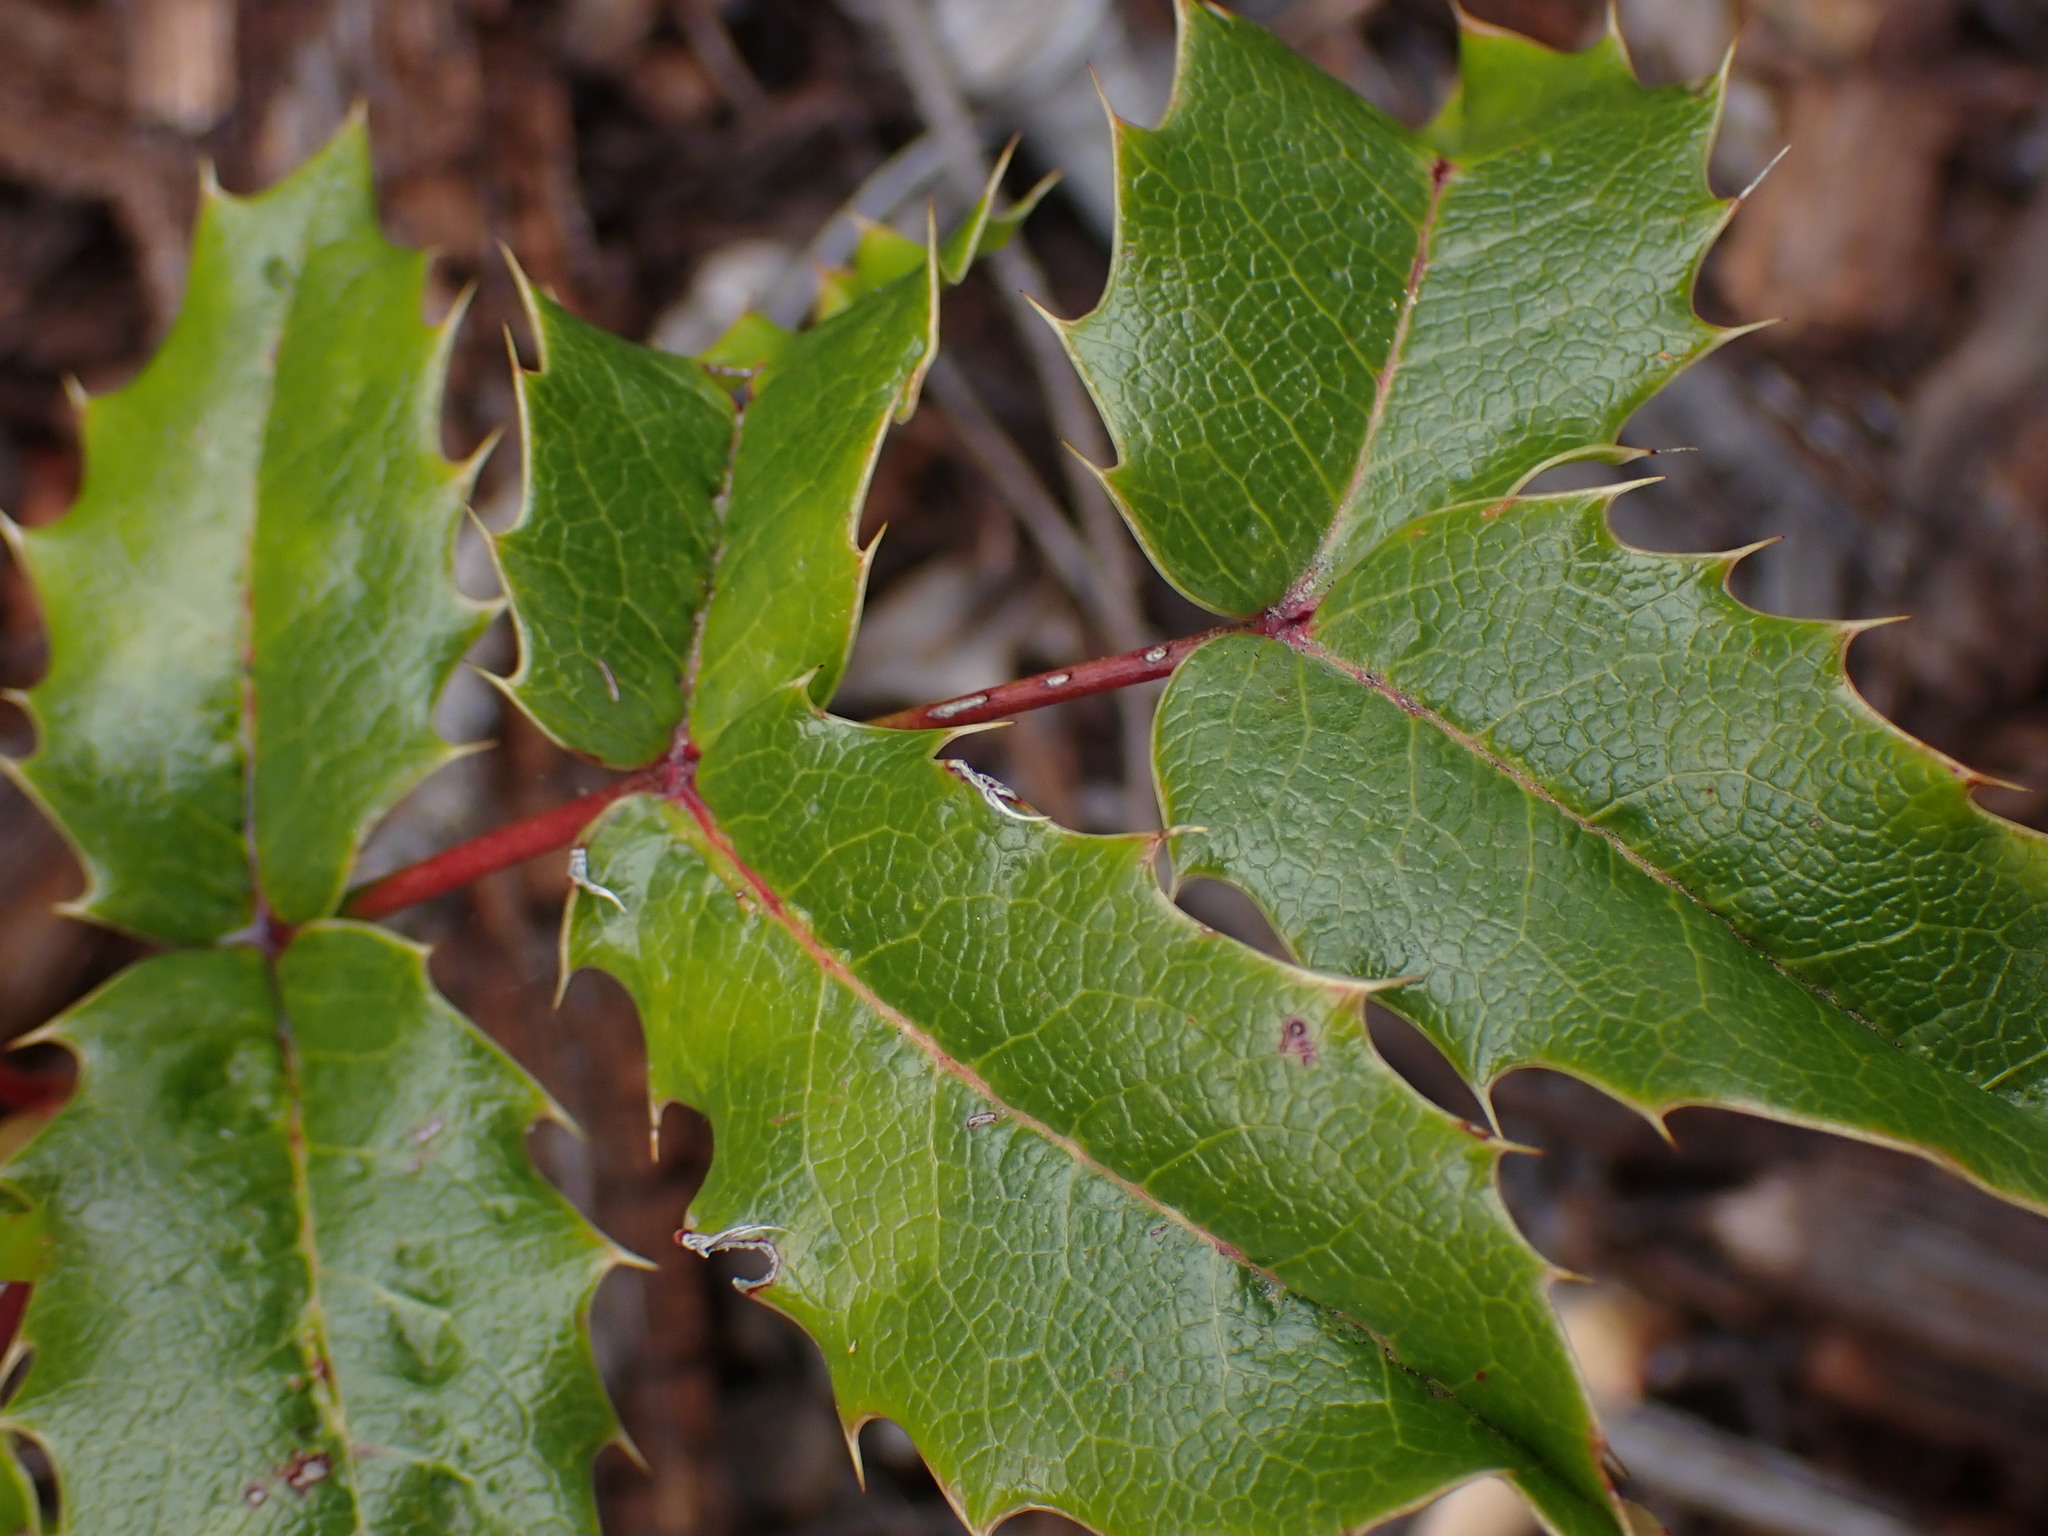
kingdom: Plantae
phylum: Tracheophyta
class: Magnoliopsida
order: Ranunculales
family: Berberidaceae
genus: Mahonia
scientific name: Mahonia aquifolium
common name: Oregon-grape
